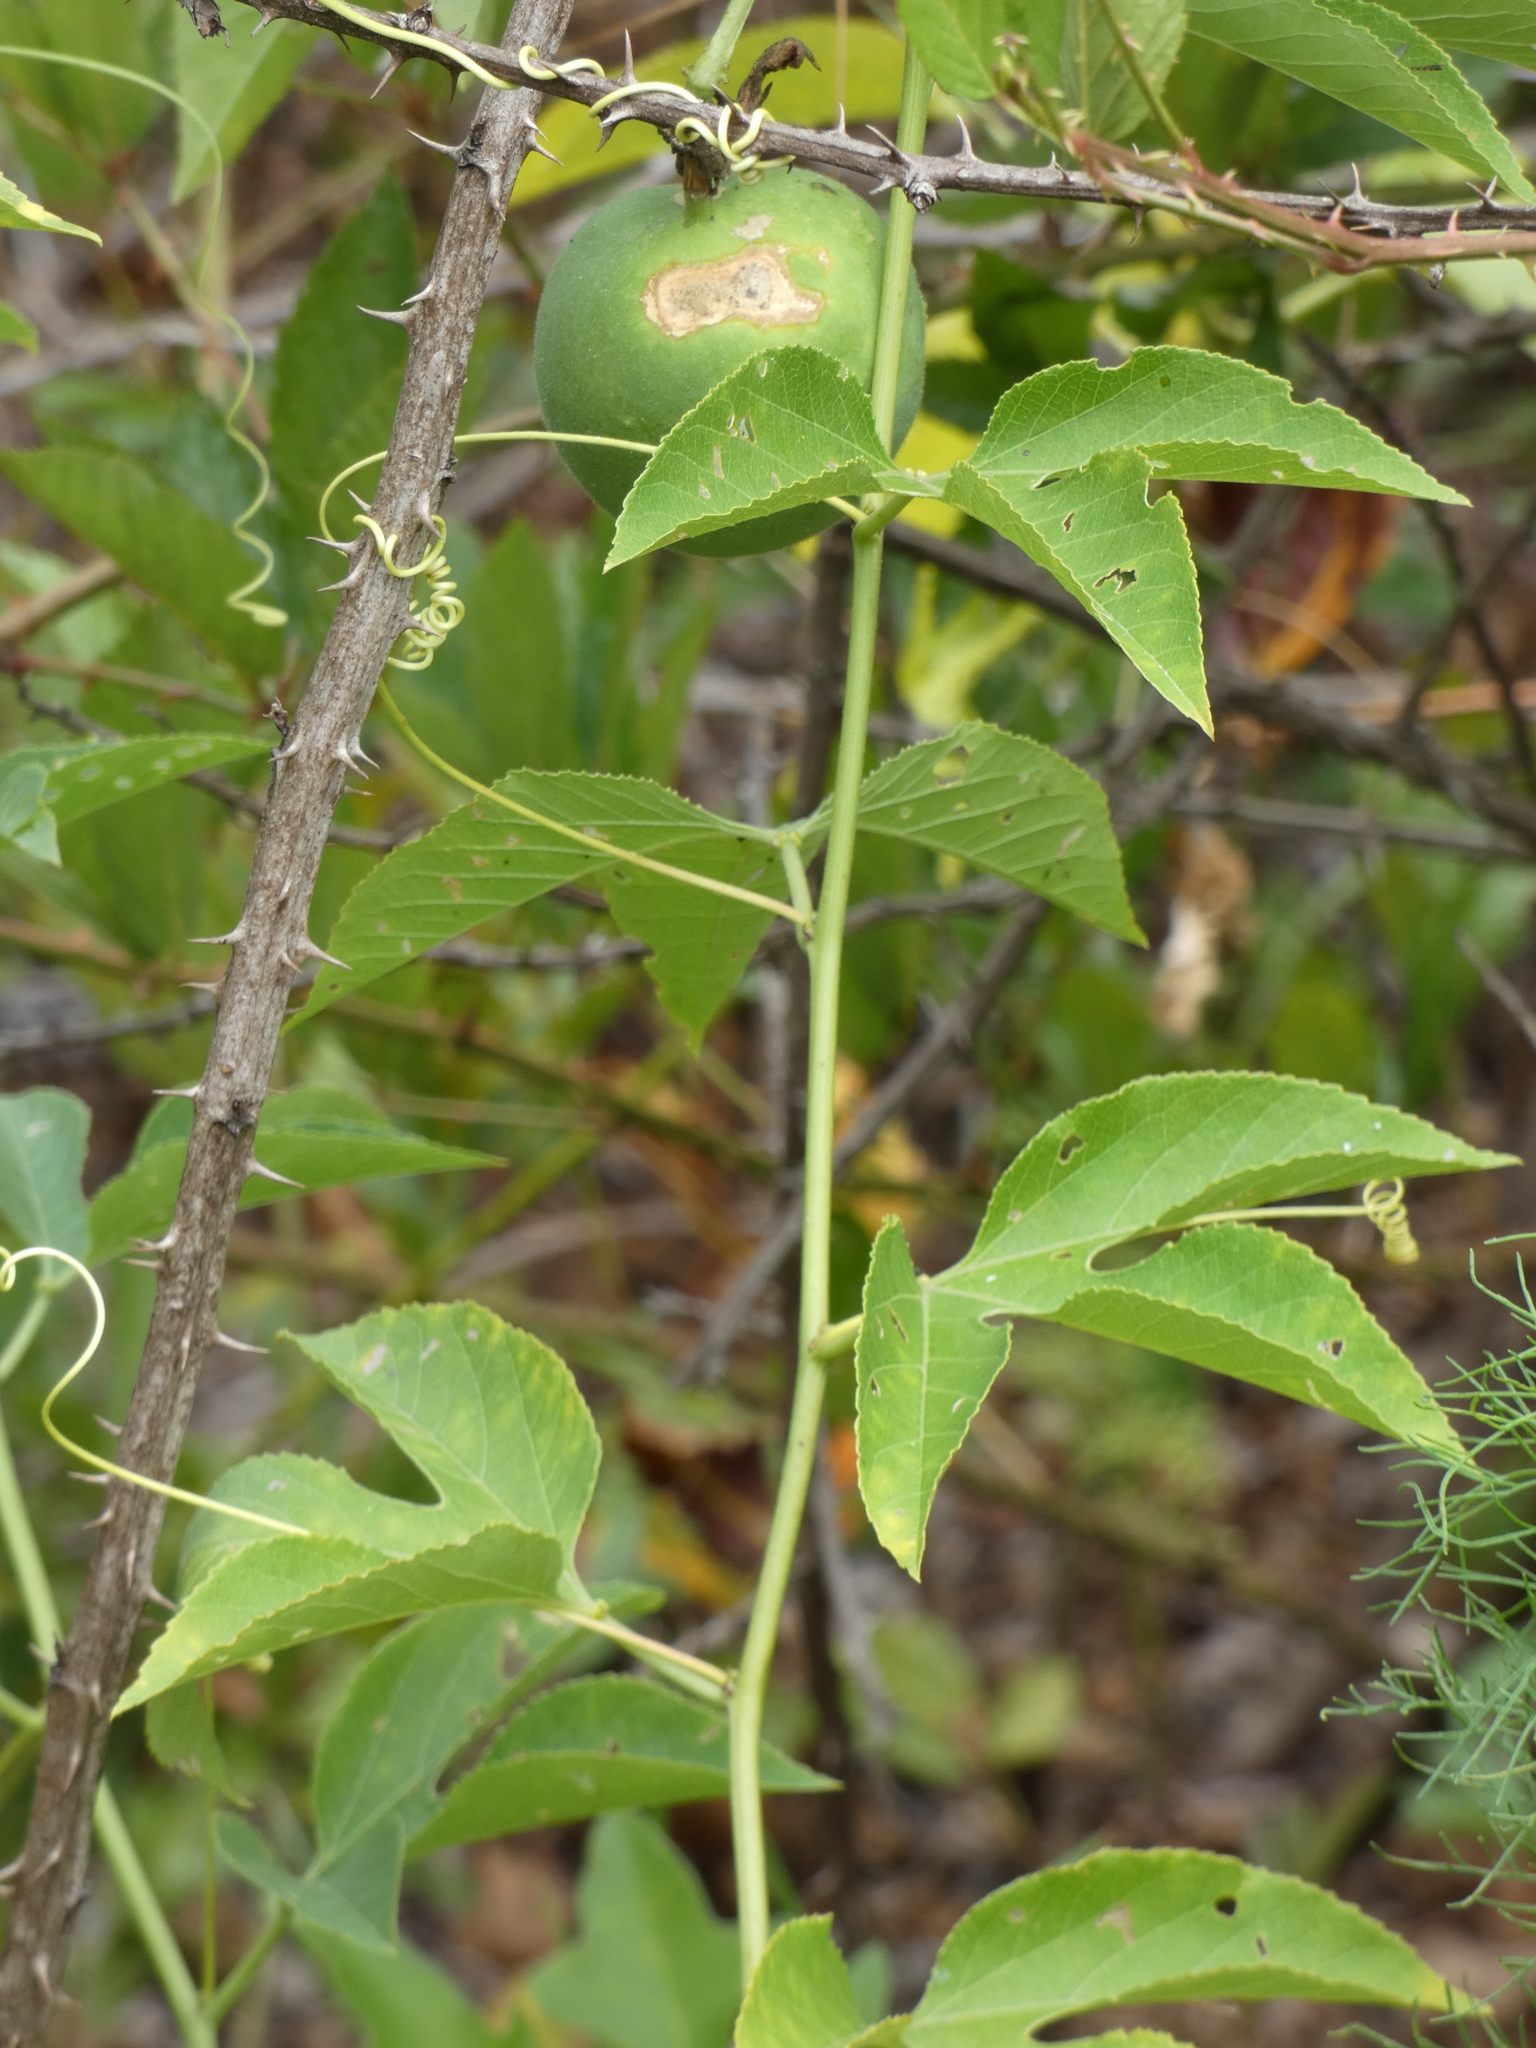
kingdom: Plantae
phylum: Tracheophyta
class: Magnoliopsida
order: Malpighiales
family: Passifloraceae
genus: Passiflora
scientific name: Passiflora incarnata
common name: Apricot-vine
